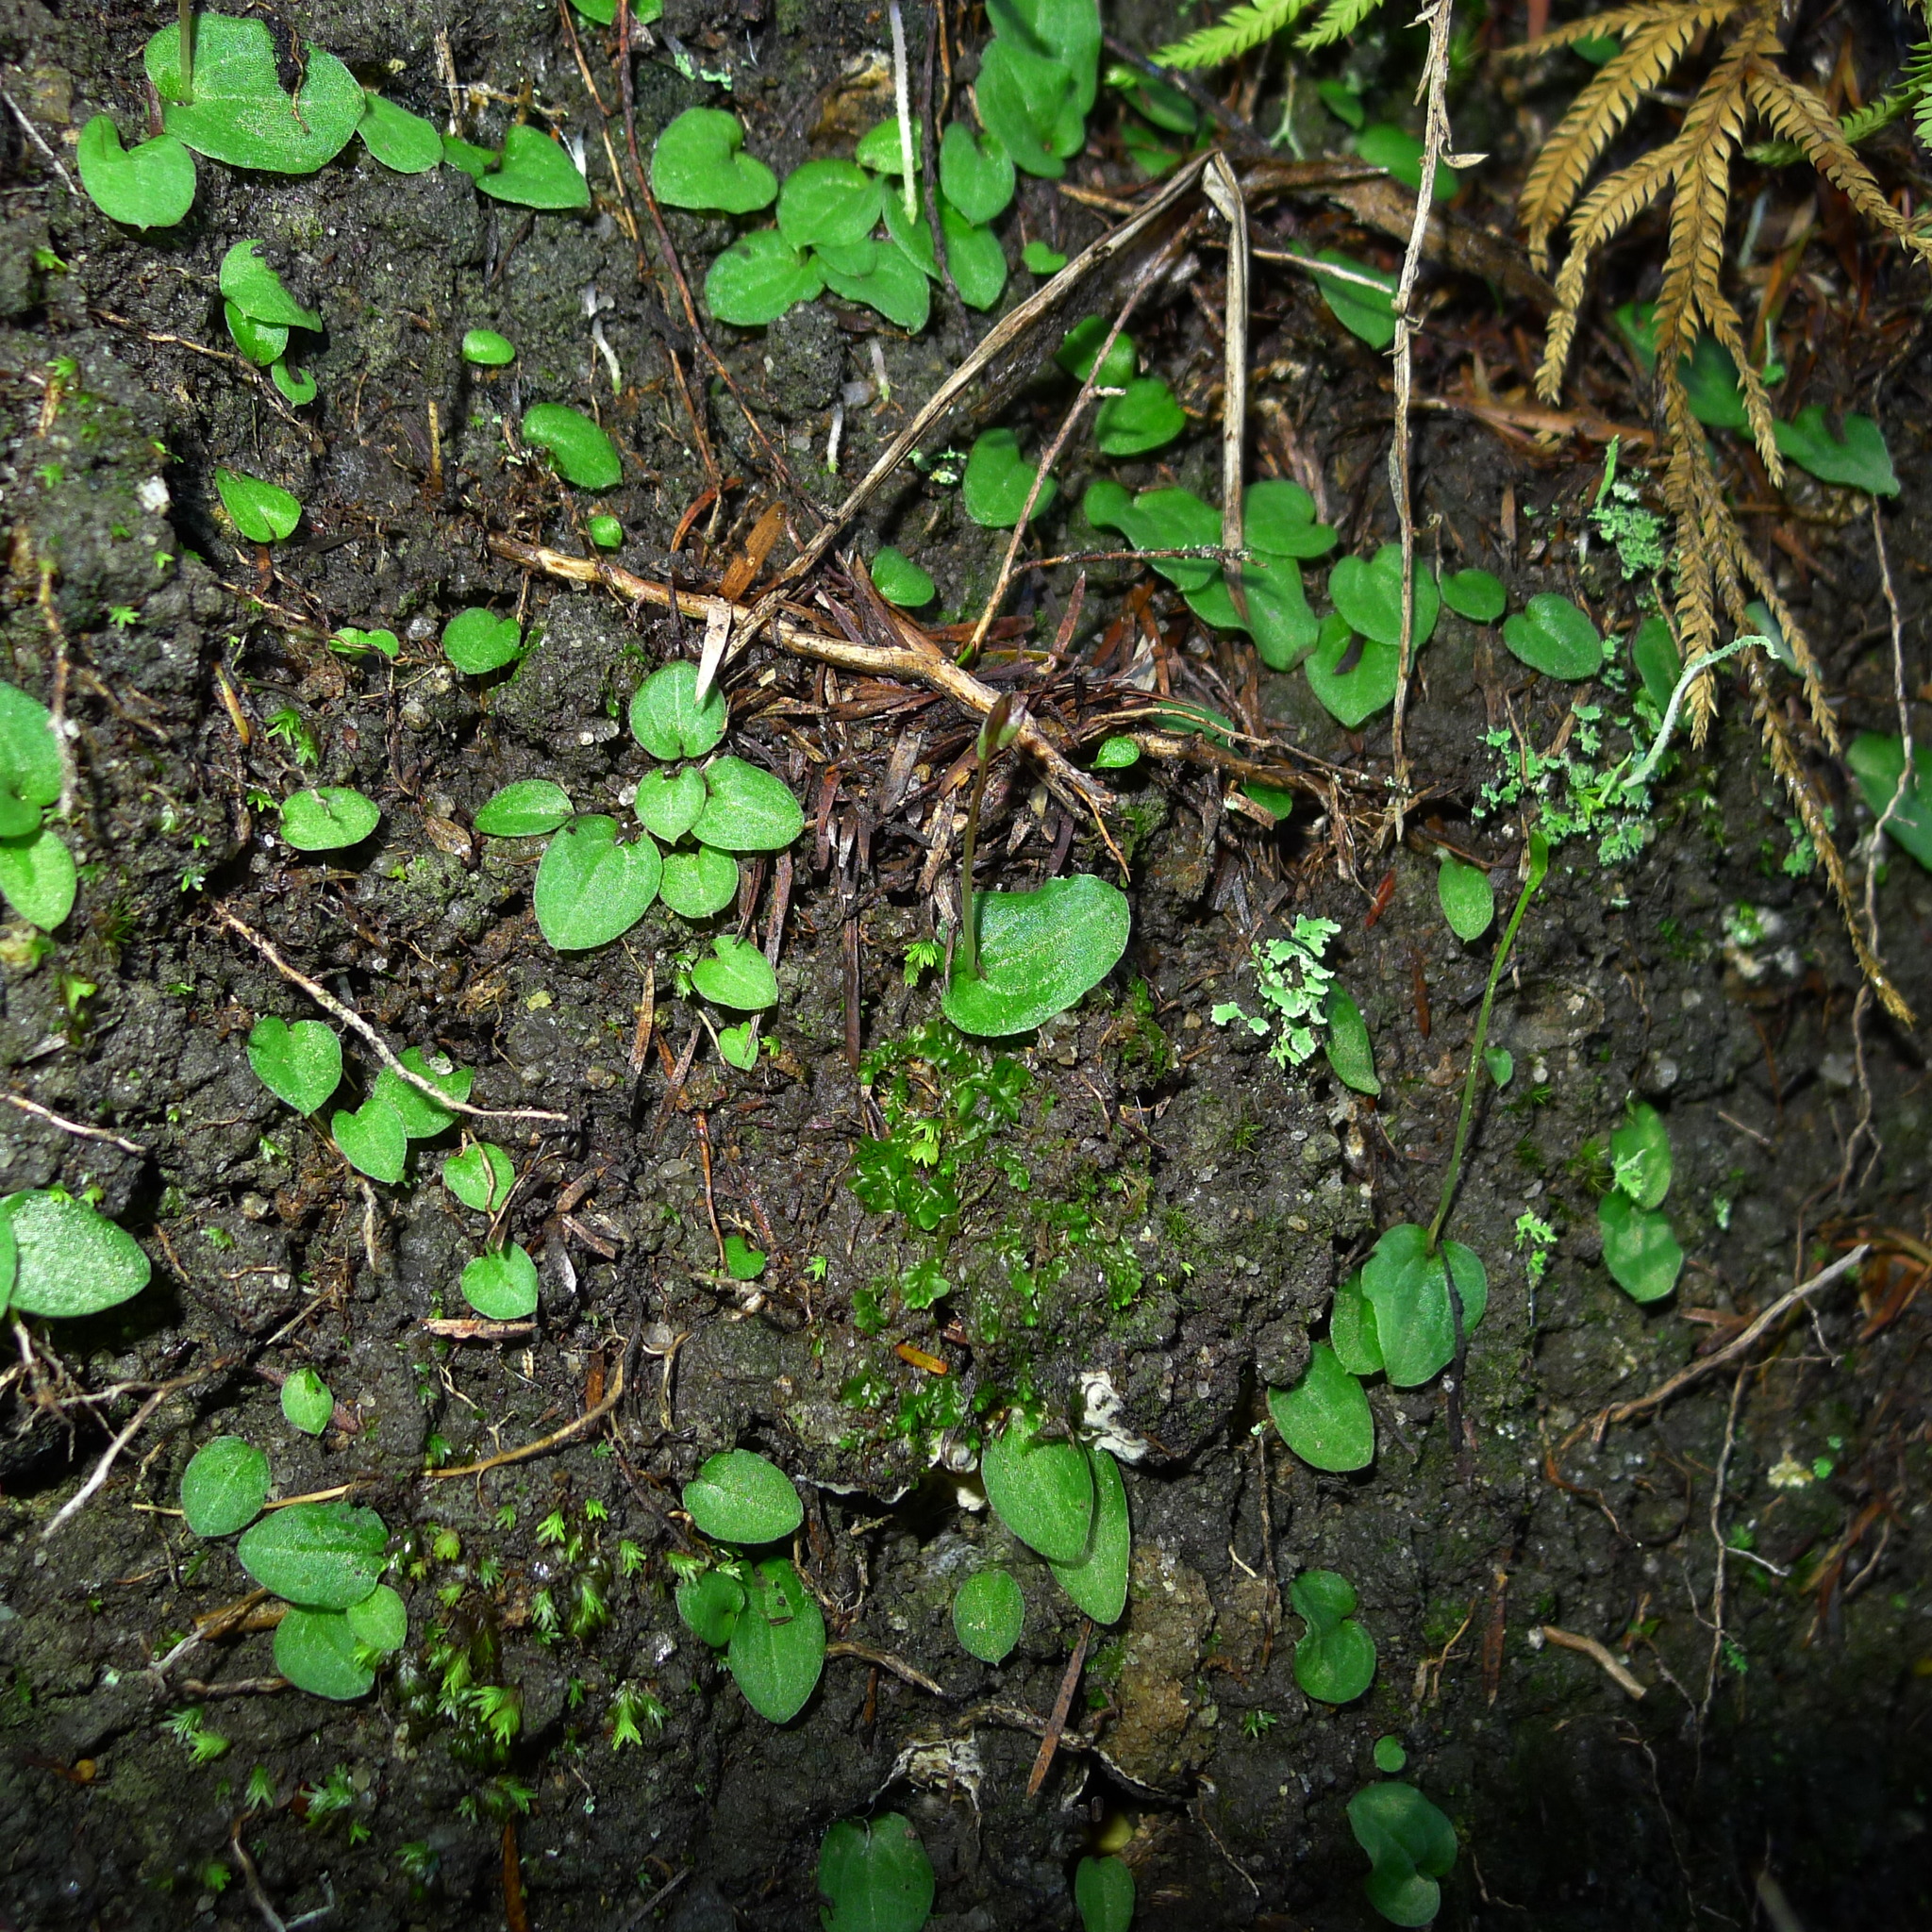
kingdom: Plantae
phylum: Tracheophyta
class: Liliopsida
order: Asparagales
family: Orchidaceae
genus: Cyrtostylis
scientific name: Cyrtostylis rotundifolia
